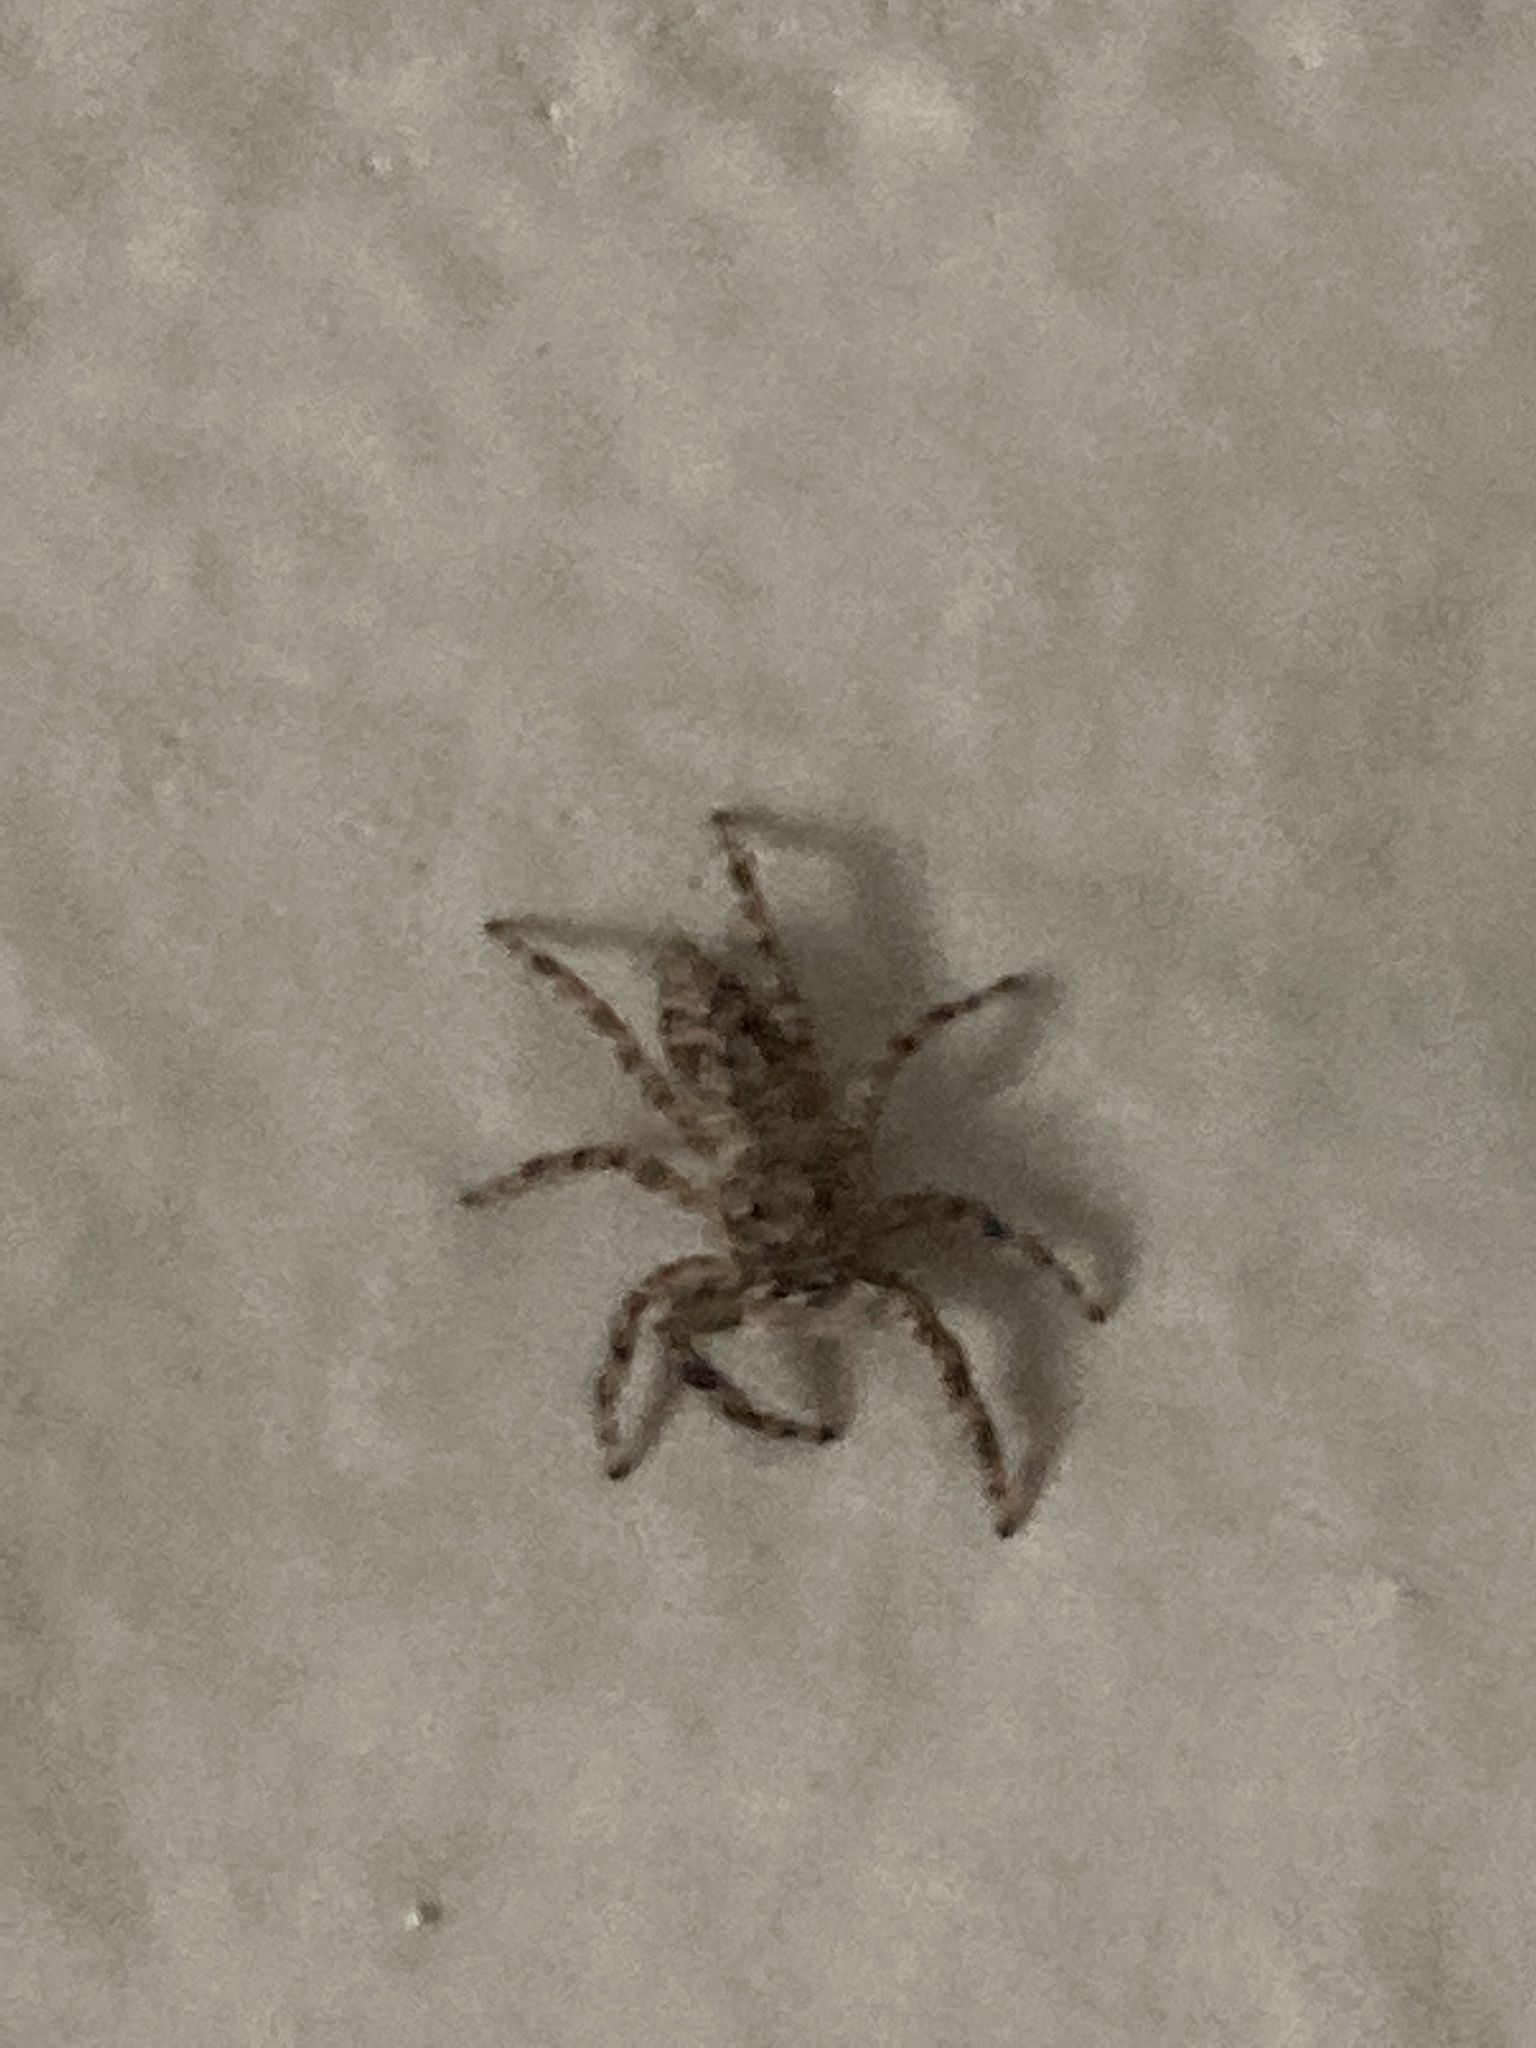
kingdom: Animalia
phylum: Arthropoda
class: Arachnida
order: Araneae
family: Salticidae
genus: Platycryptus
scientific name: Platycryptus undatus
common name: Tan jumping spider
